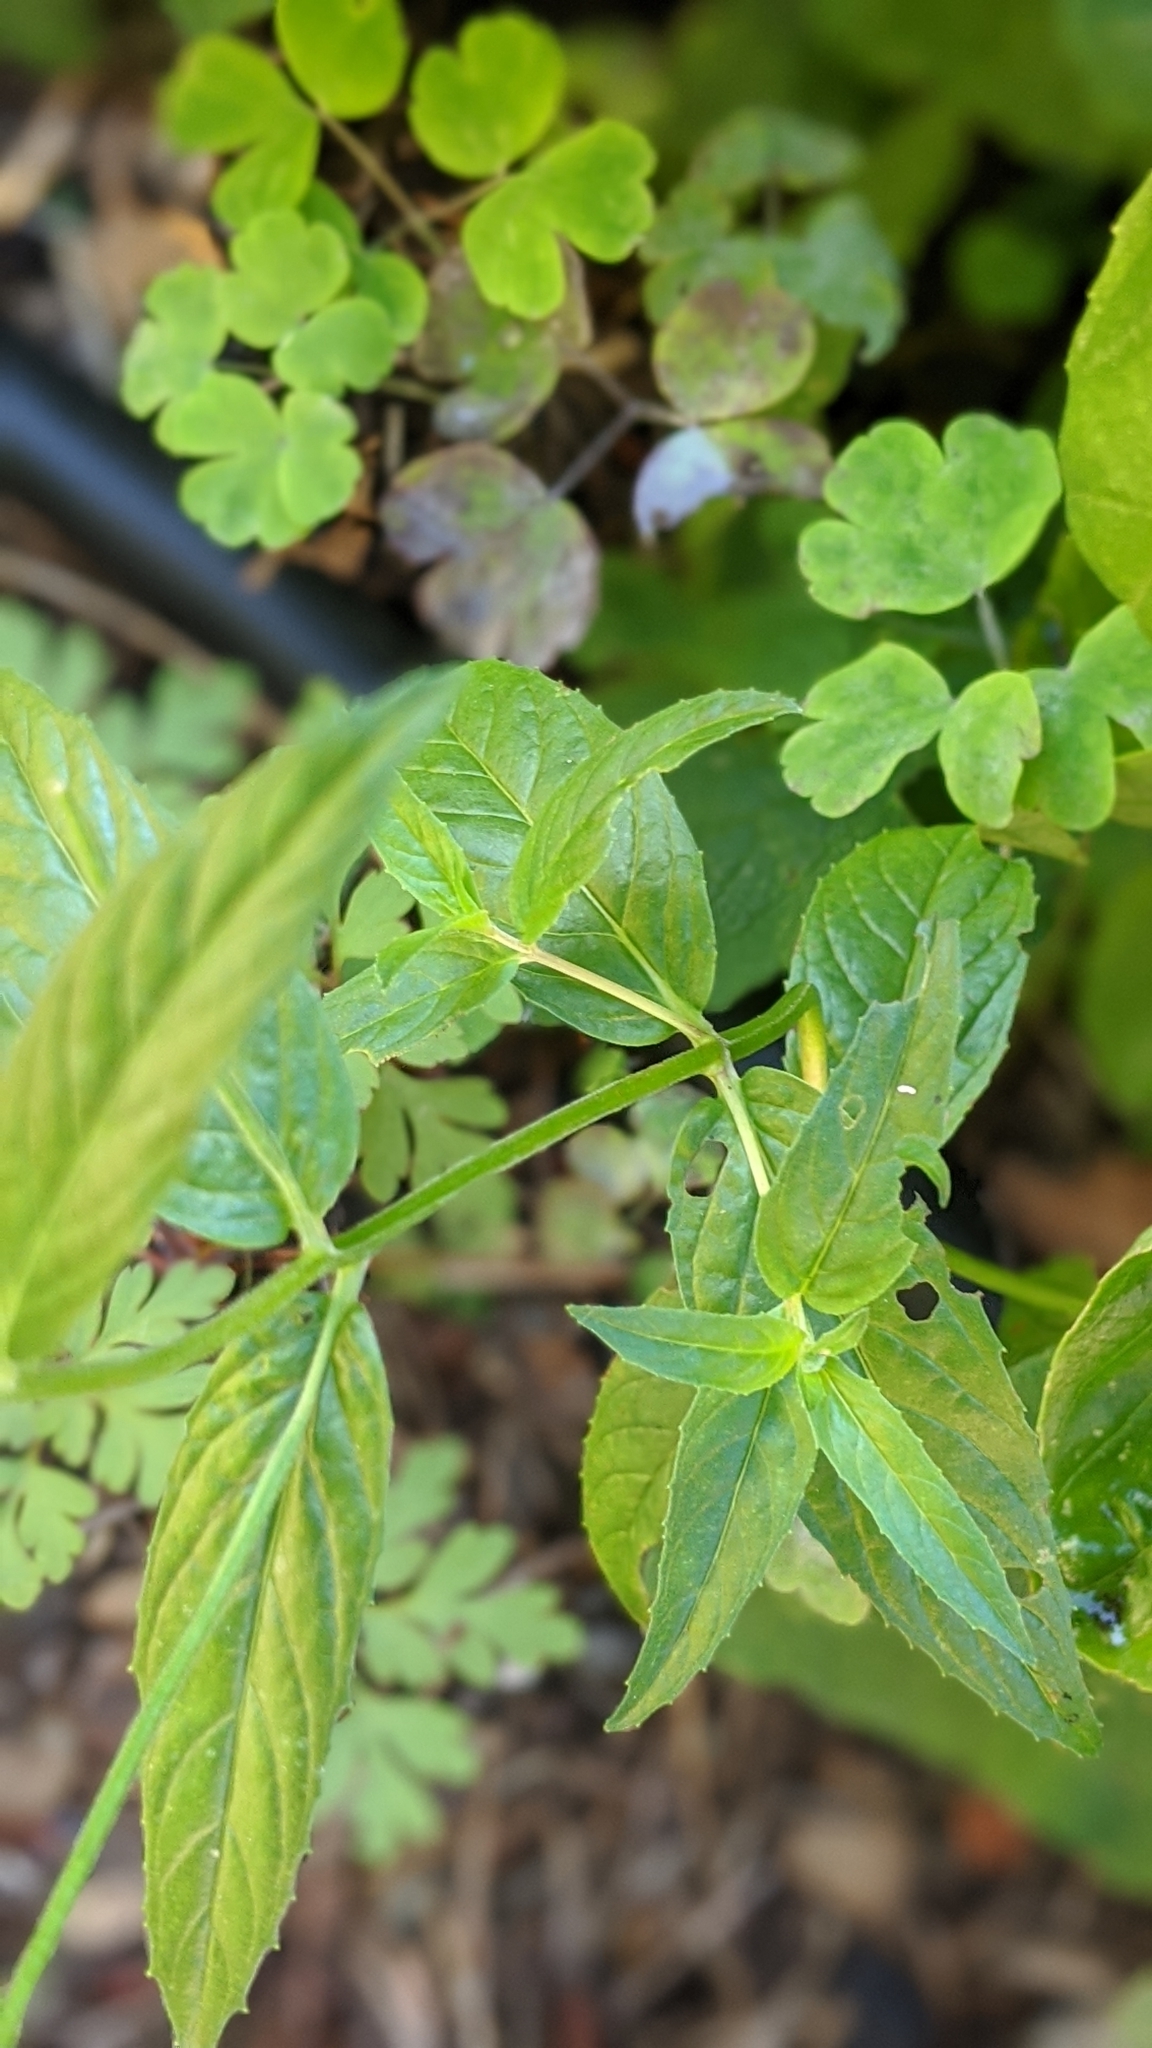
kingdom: Plantae
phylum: Tracheophyta
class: Magnoliopsida
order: Myrtales
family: Onagraceae
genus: Epilobium
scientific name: Epilobium ciliatum
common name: American willowherb
